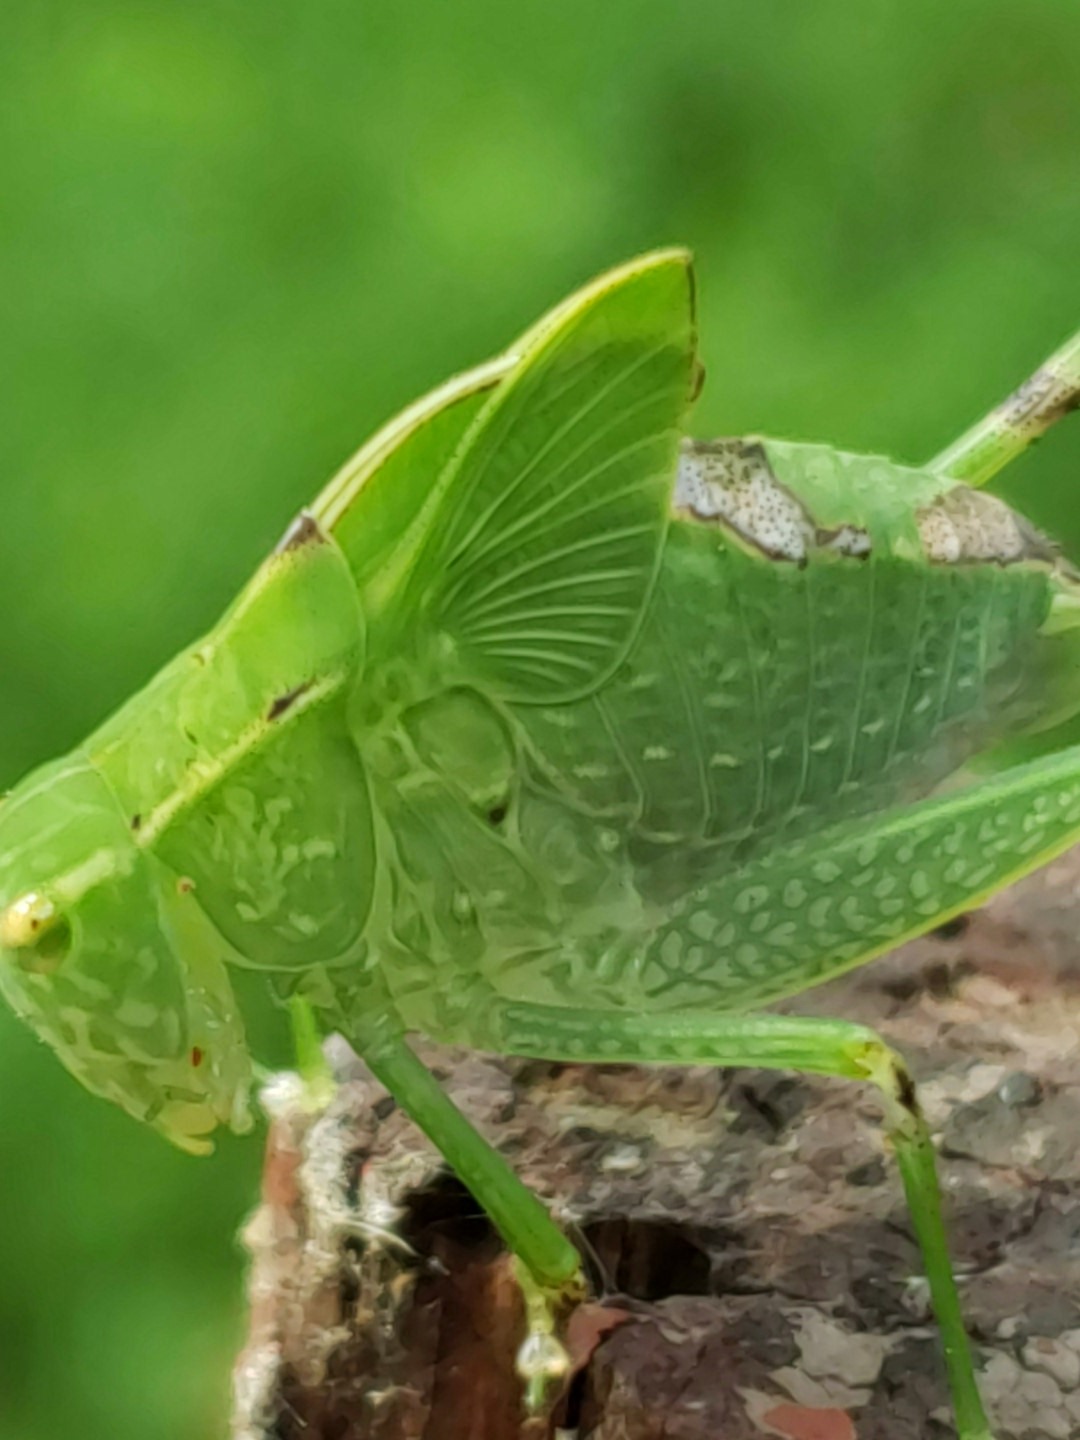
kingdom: Animalia
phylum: Arthropoda
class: Insecta
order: Orthoptera
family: Tettigoniidae
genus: Microcentrum
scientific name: Microcentrum retinerve
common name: Angular-winged katydid
